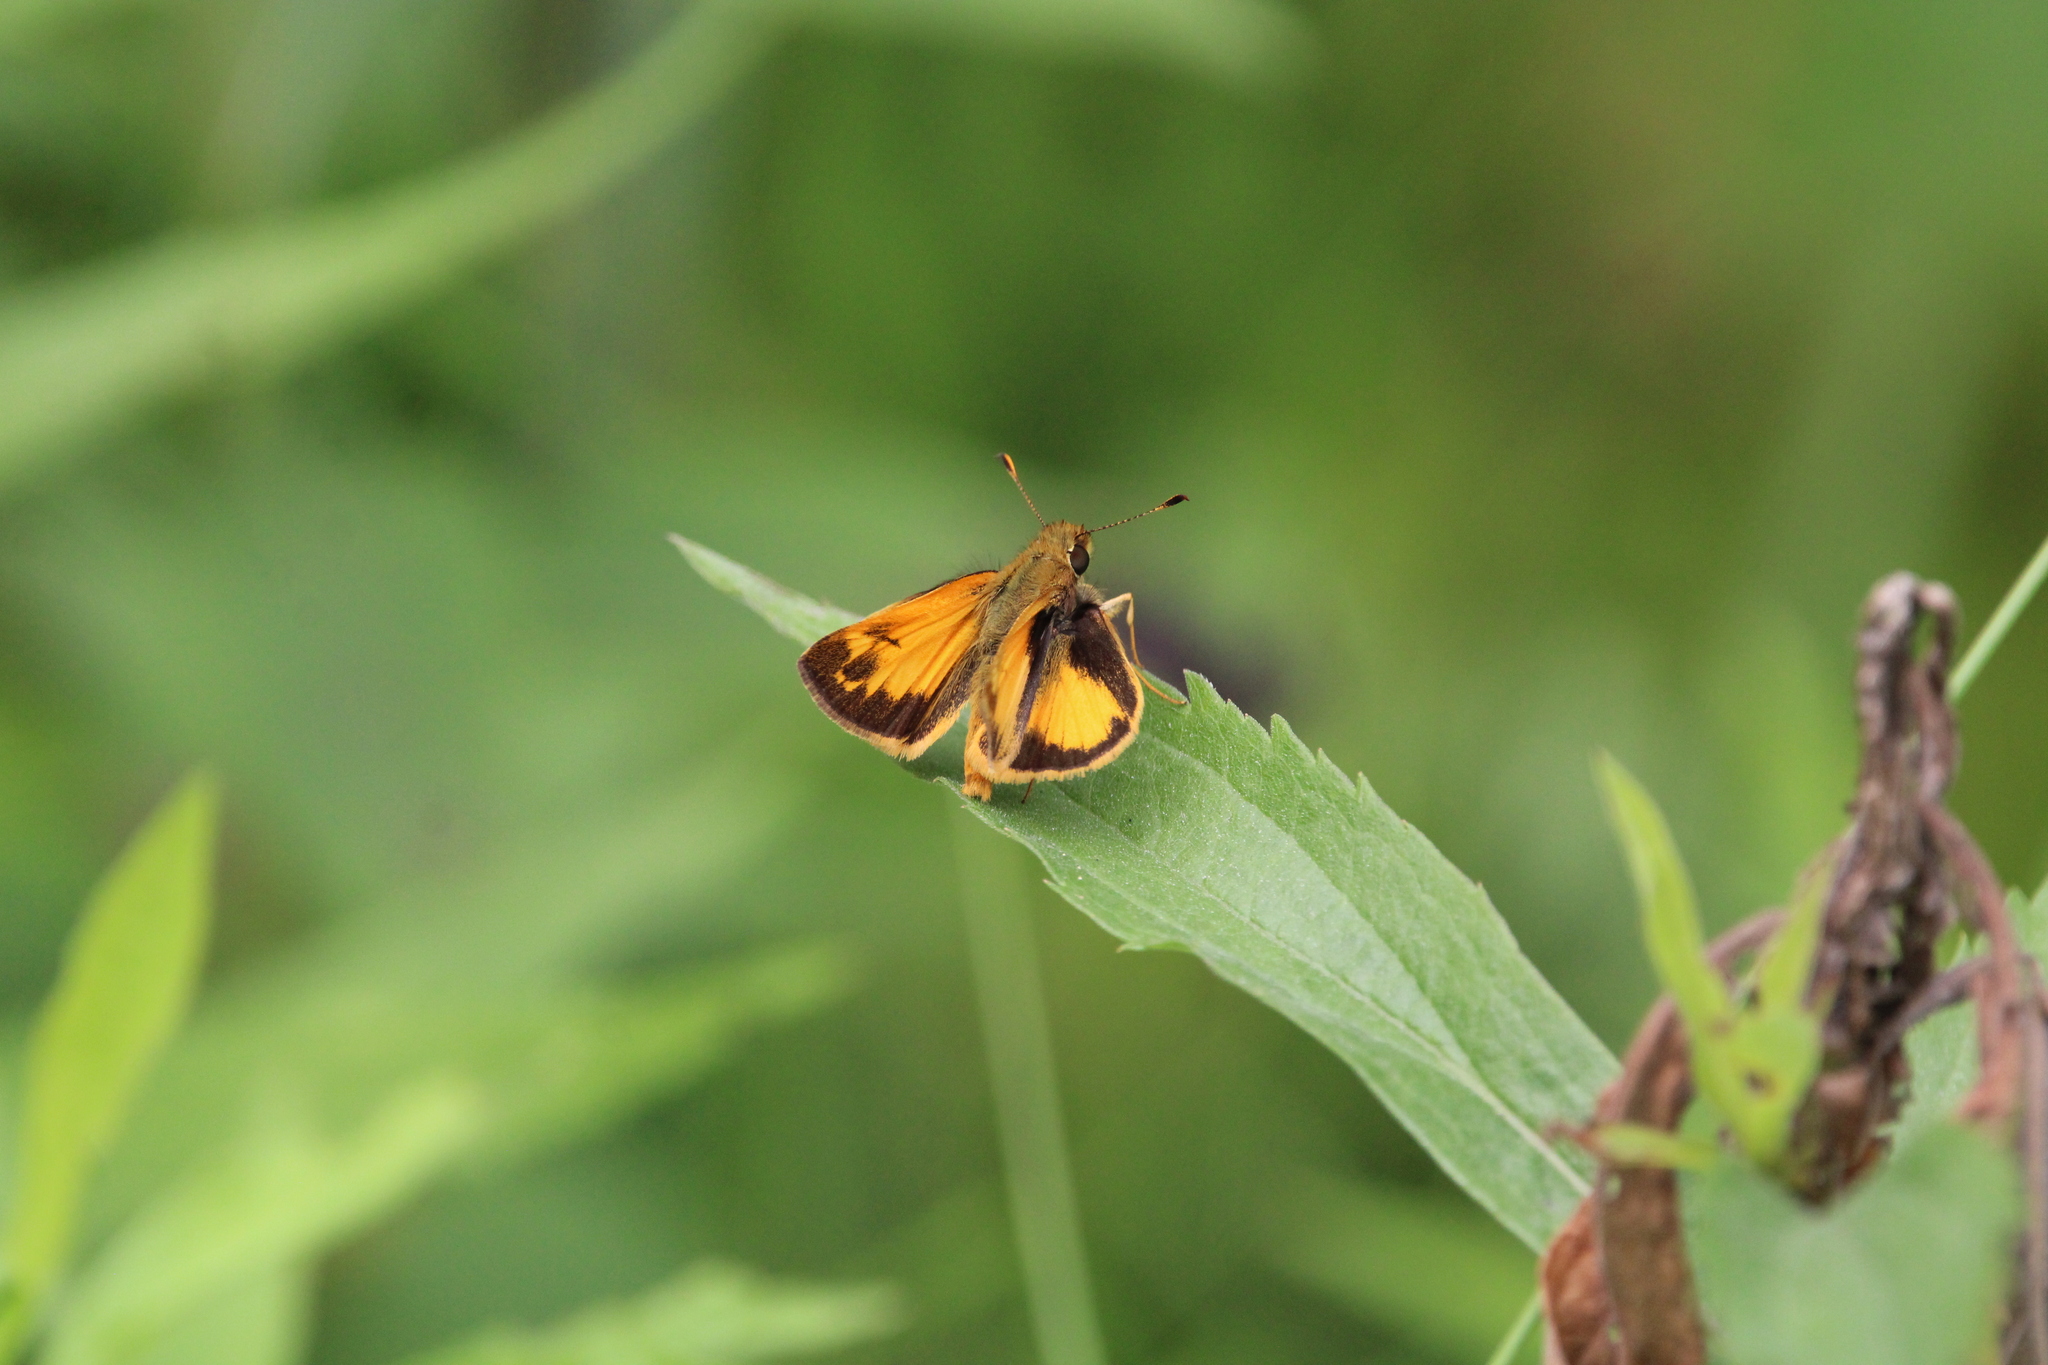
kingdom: Animalia
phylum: Arthropoda
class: Insecta
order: Lepidoptera
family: Hesperiidae
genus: Lon
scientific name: Lon zabulon
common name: Zabulon skipper
